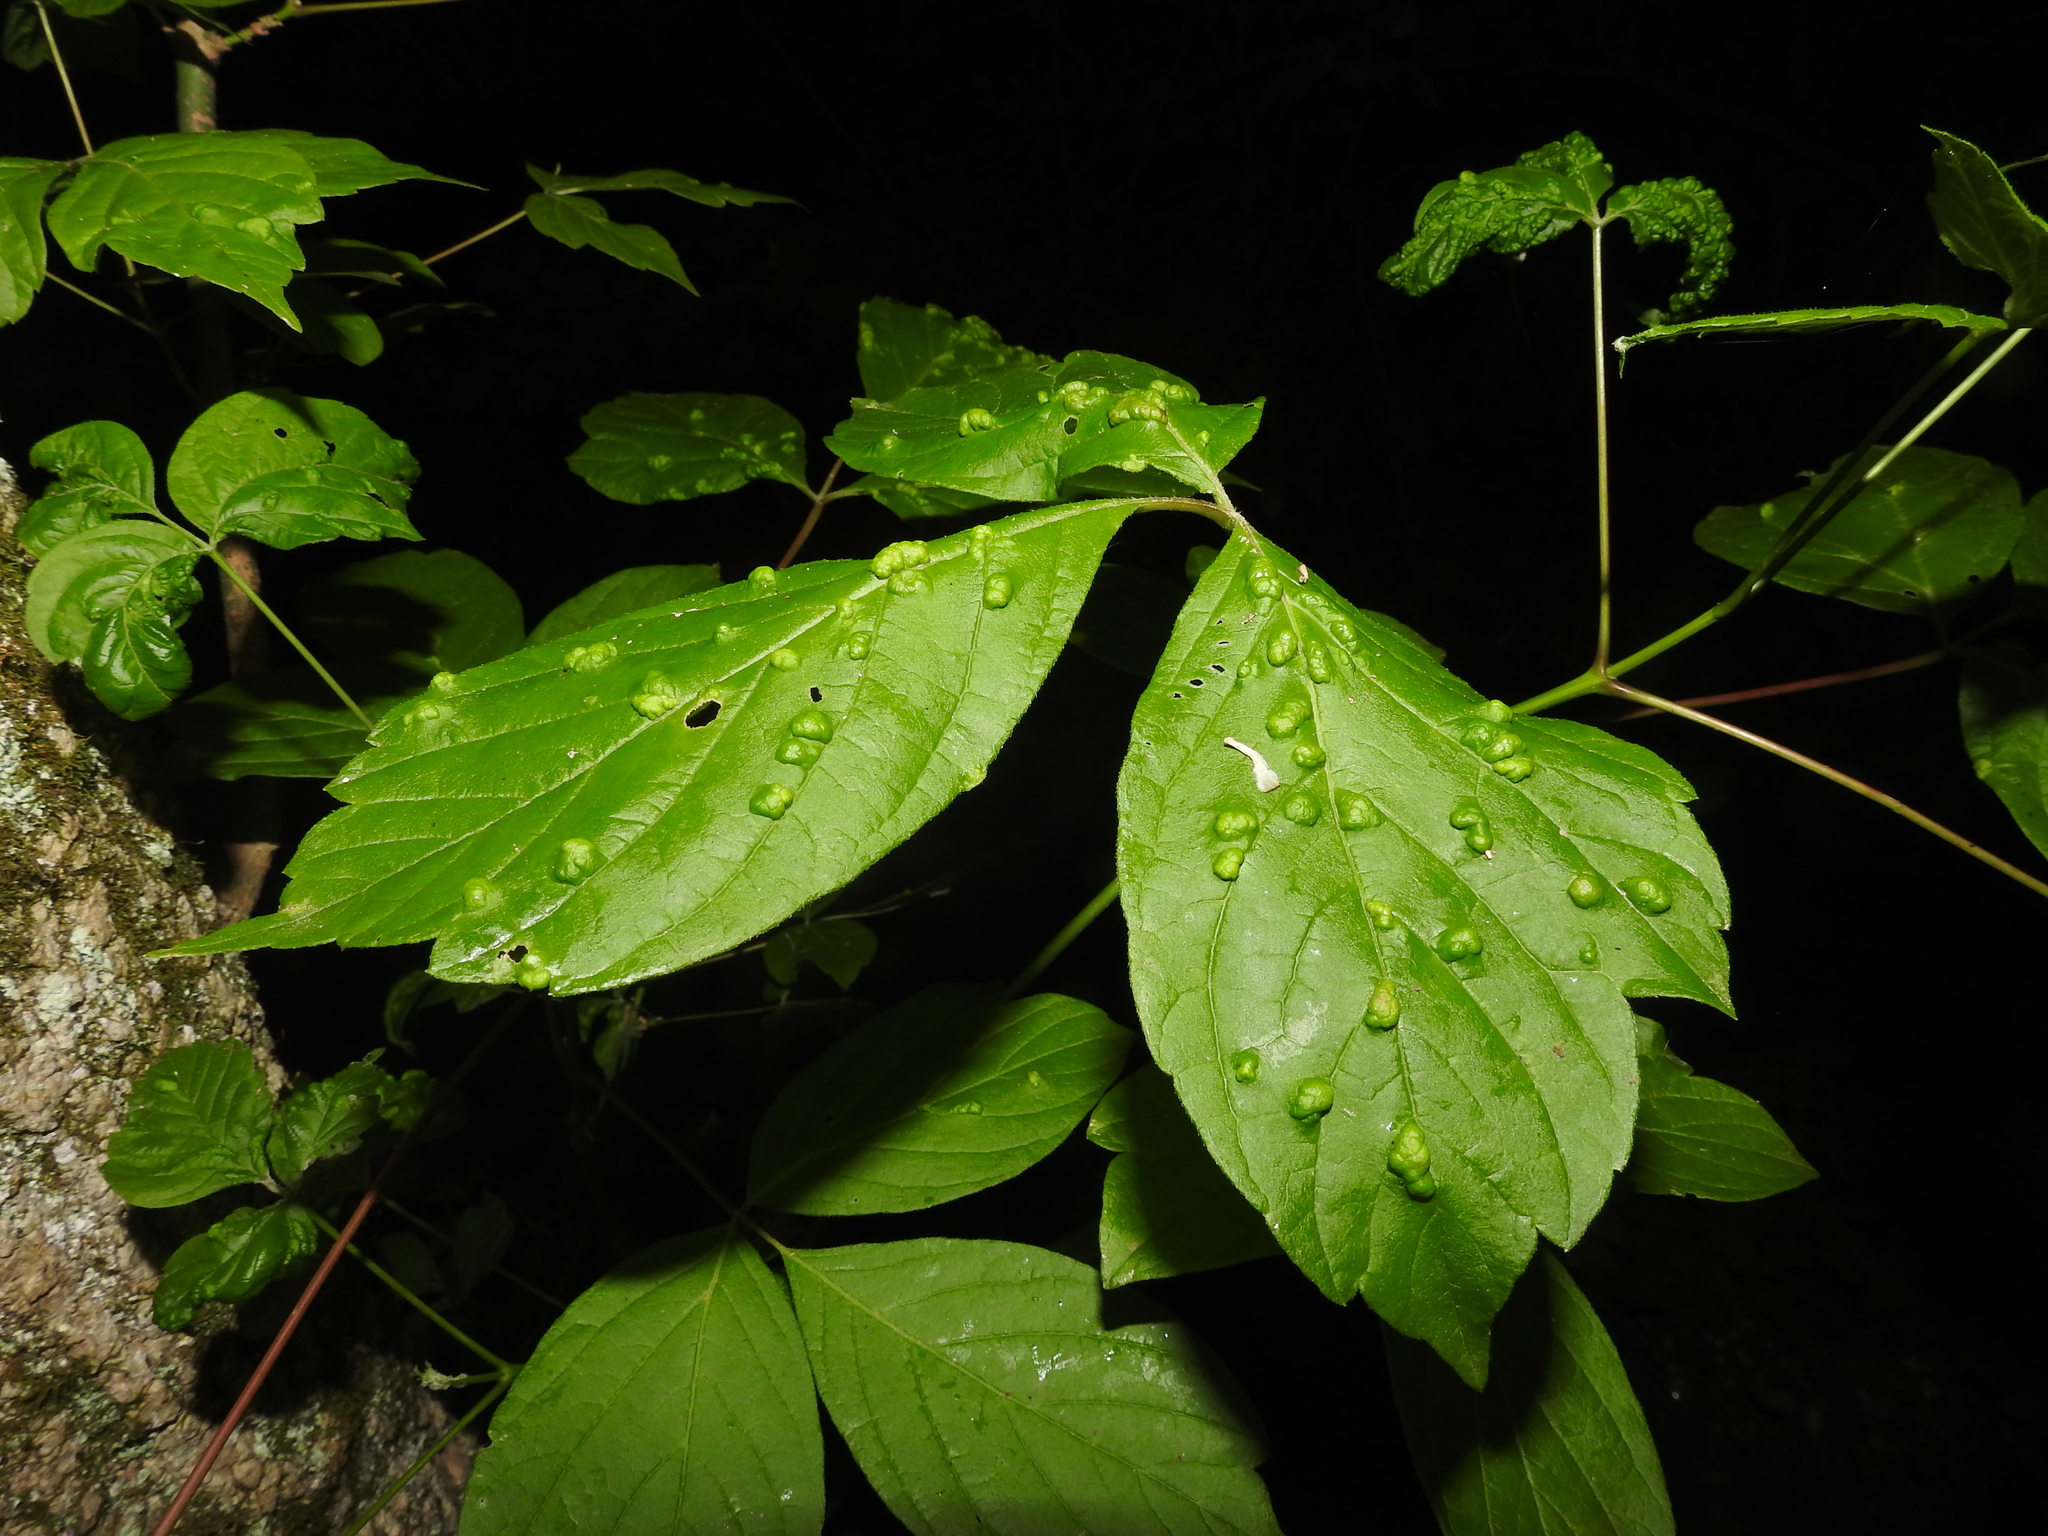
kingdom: Animalia
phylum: Arthropoda
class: Arachnida
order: Trombidiformes
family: Eriophyidae
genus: Aceria
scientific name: Aceria
